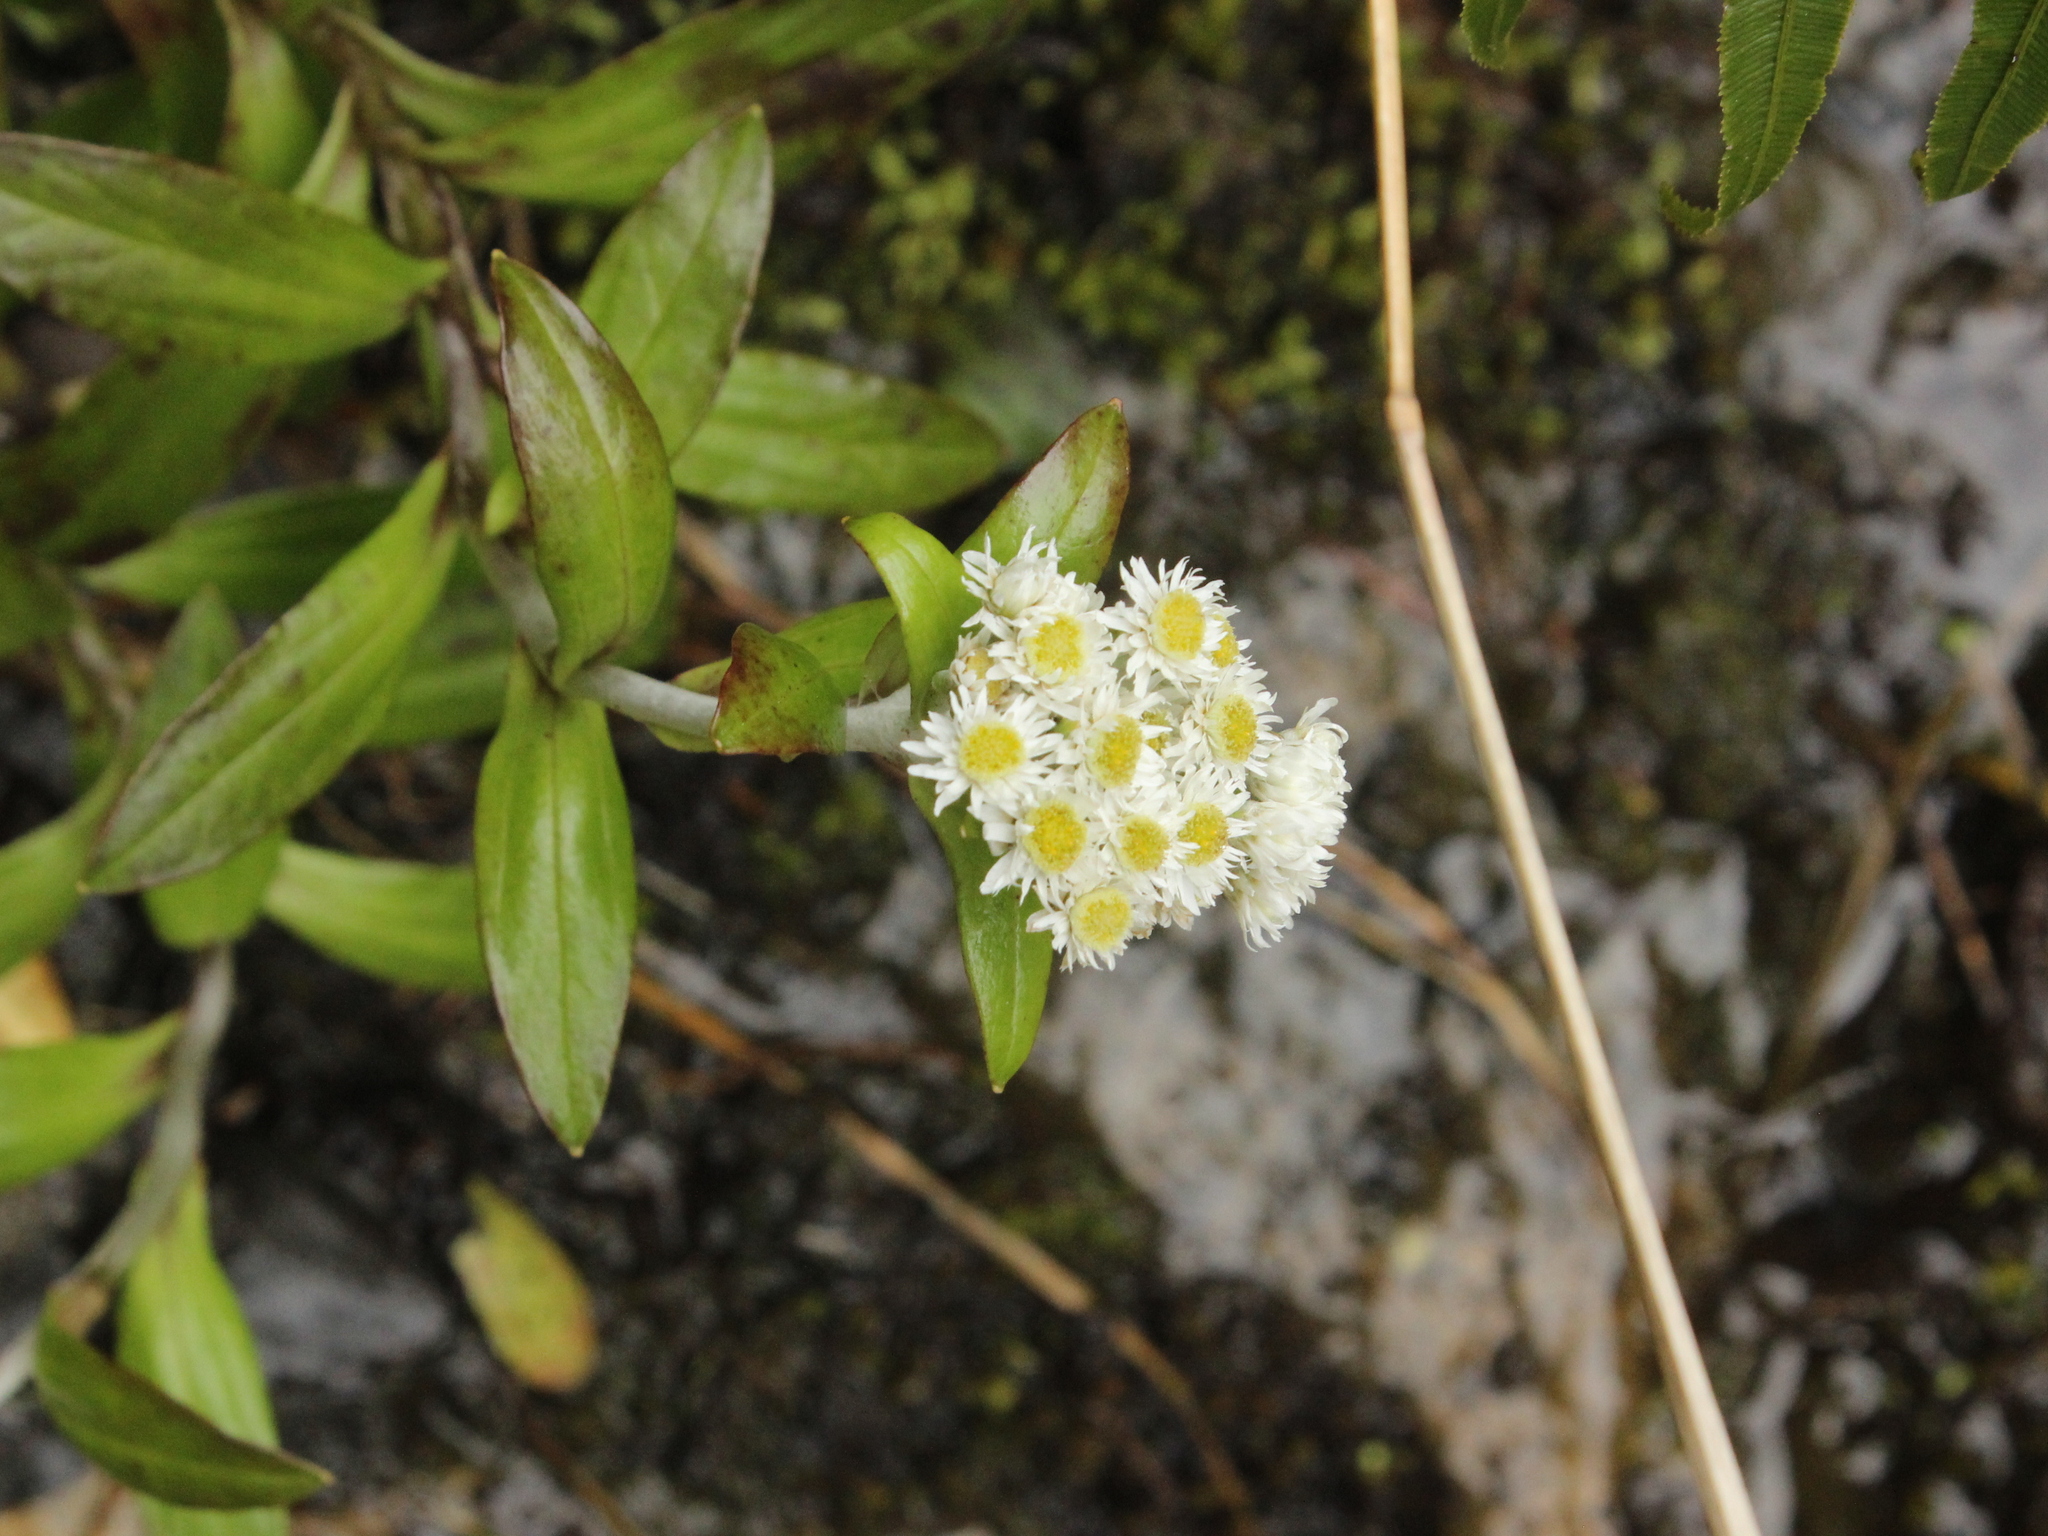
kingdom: Plantae
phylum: Tracheophyta
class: Magnoliopsida
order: Asterales
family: Asteraceae
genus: Anaphalioides
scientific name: Anaphalioides trinervis
